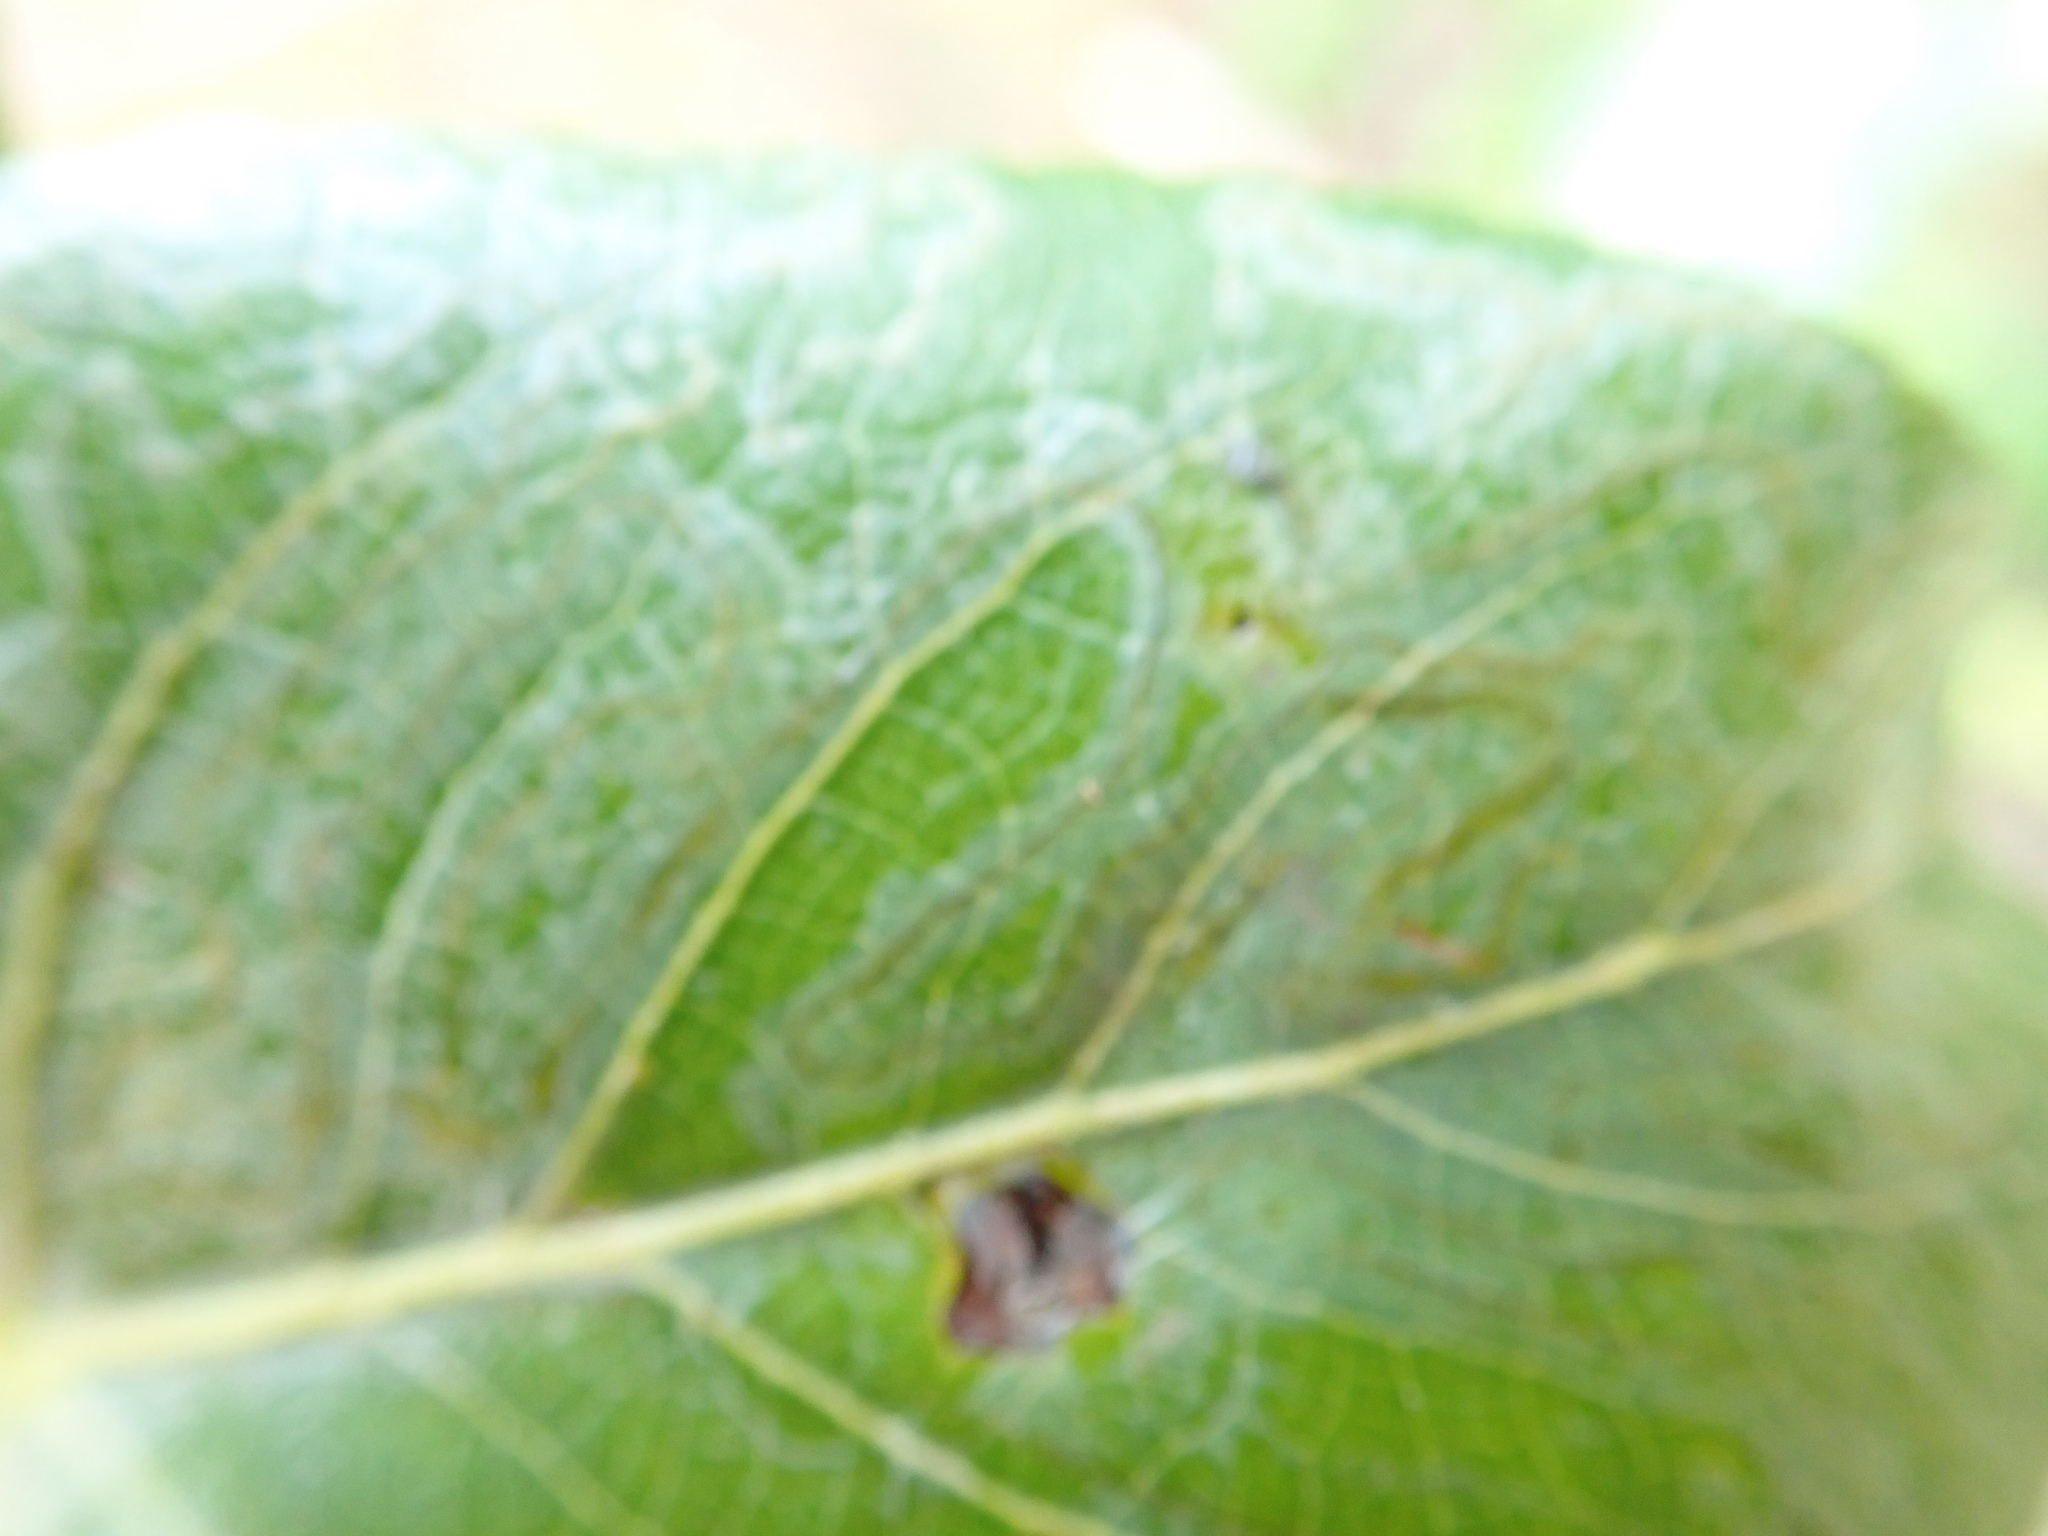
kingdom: Animalia
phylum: Arthropoda
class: Insecta
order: Lepidoptera
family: Gracillariidae
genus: Phyllocnistis
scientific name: Phyllocnistis populiella
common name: Aspen serpentine leafminer moth
